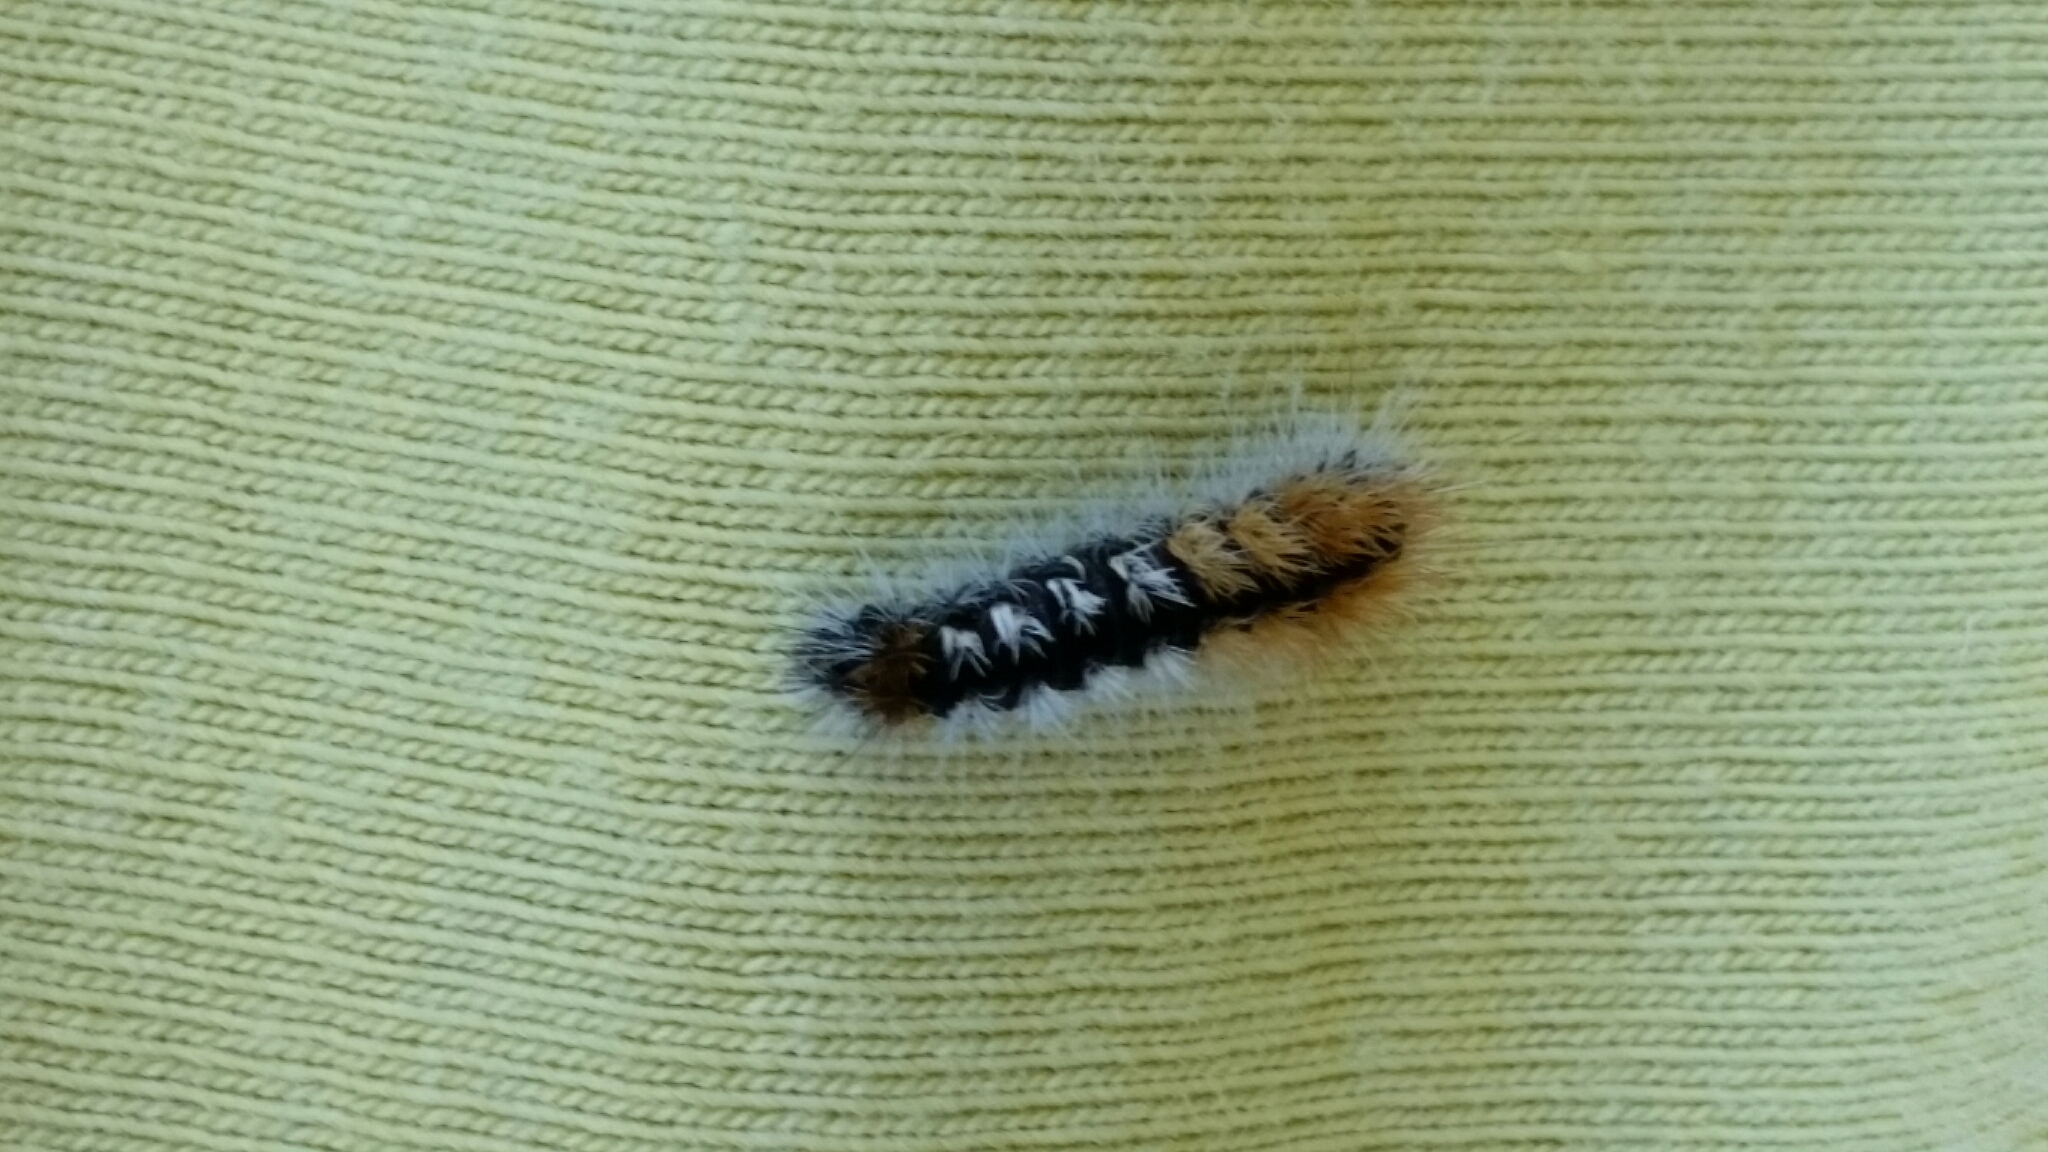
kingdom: Animalia
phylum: Arthropoda
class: Insecta
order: Lepidoptera
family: Noctuidae
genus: Acronicta
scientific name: Acronicta impressa
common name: Impressed dagger
